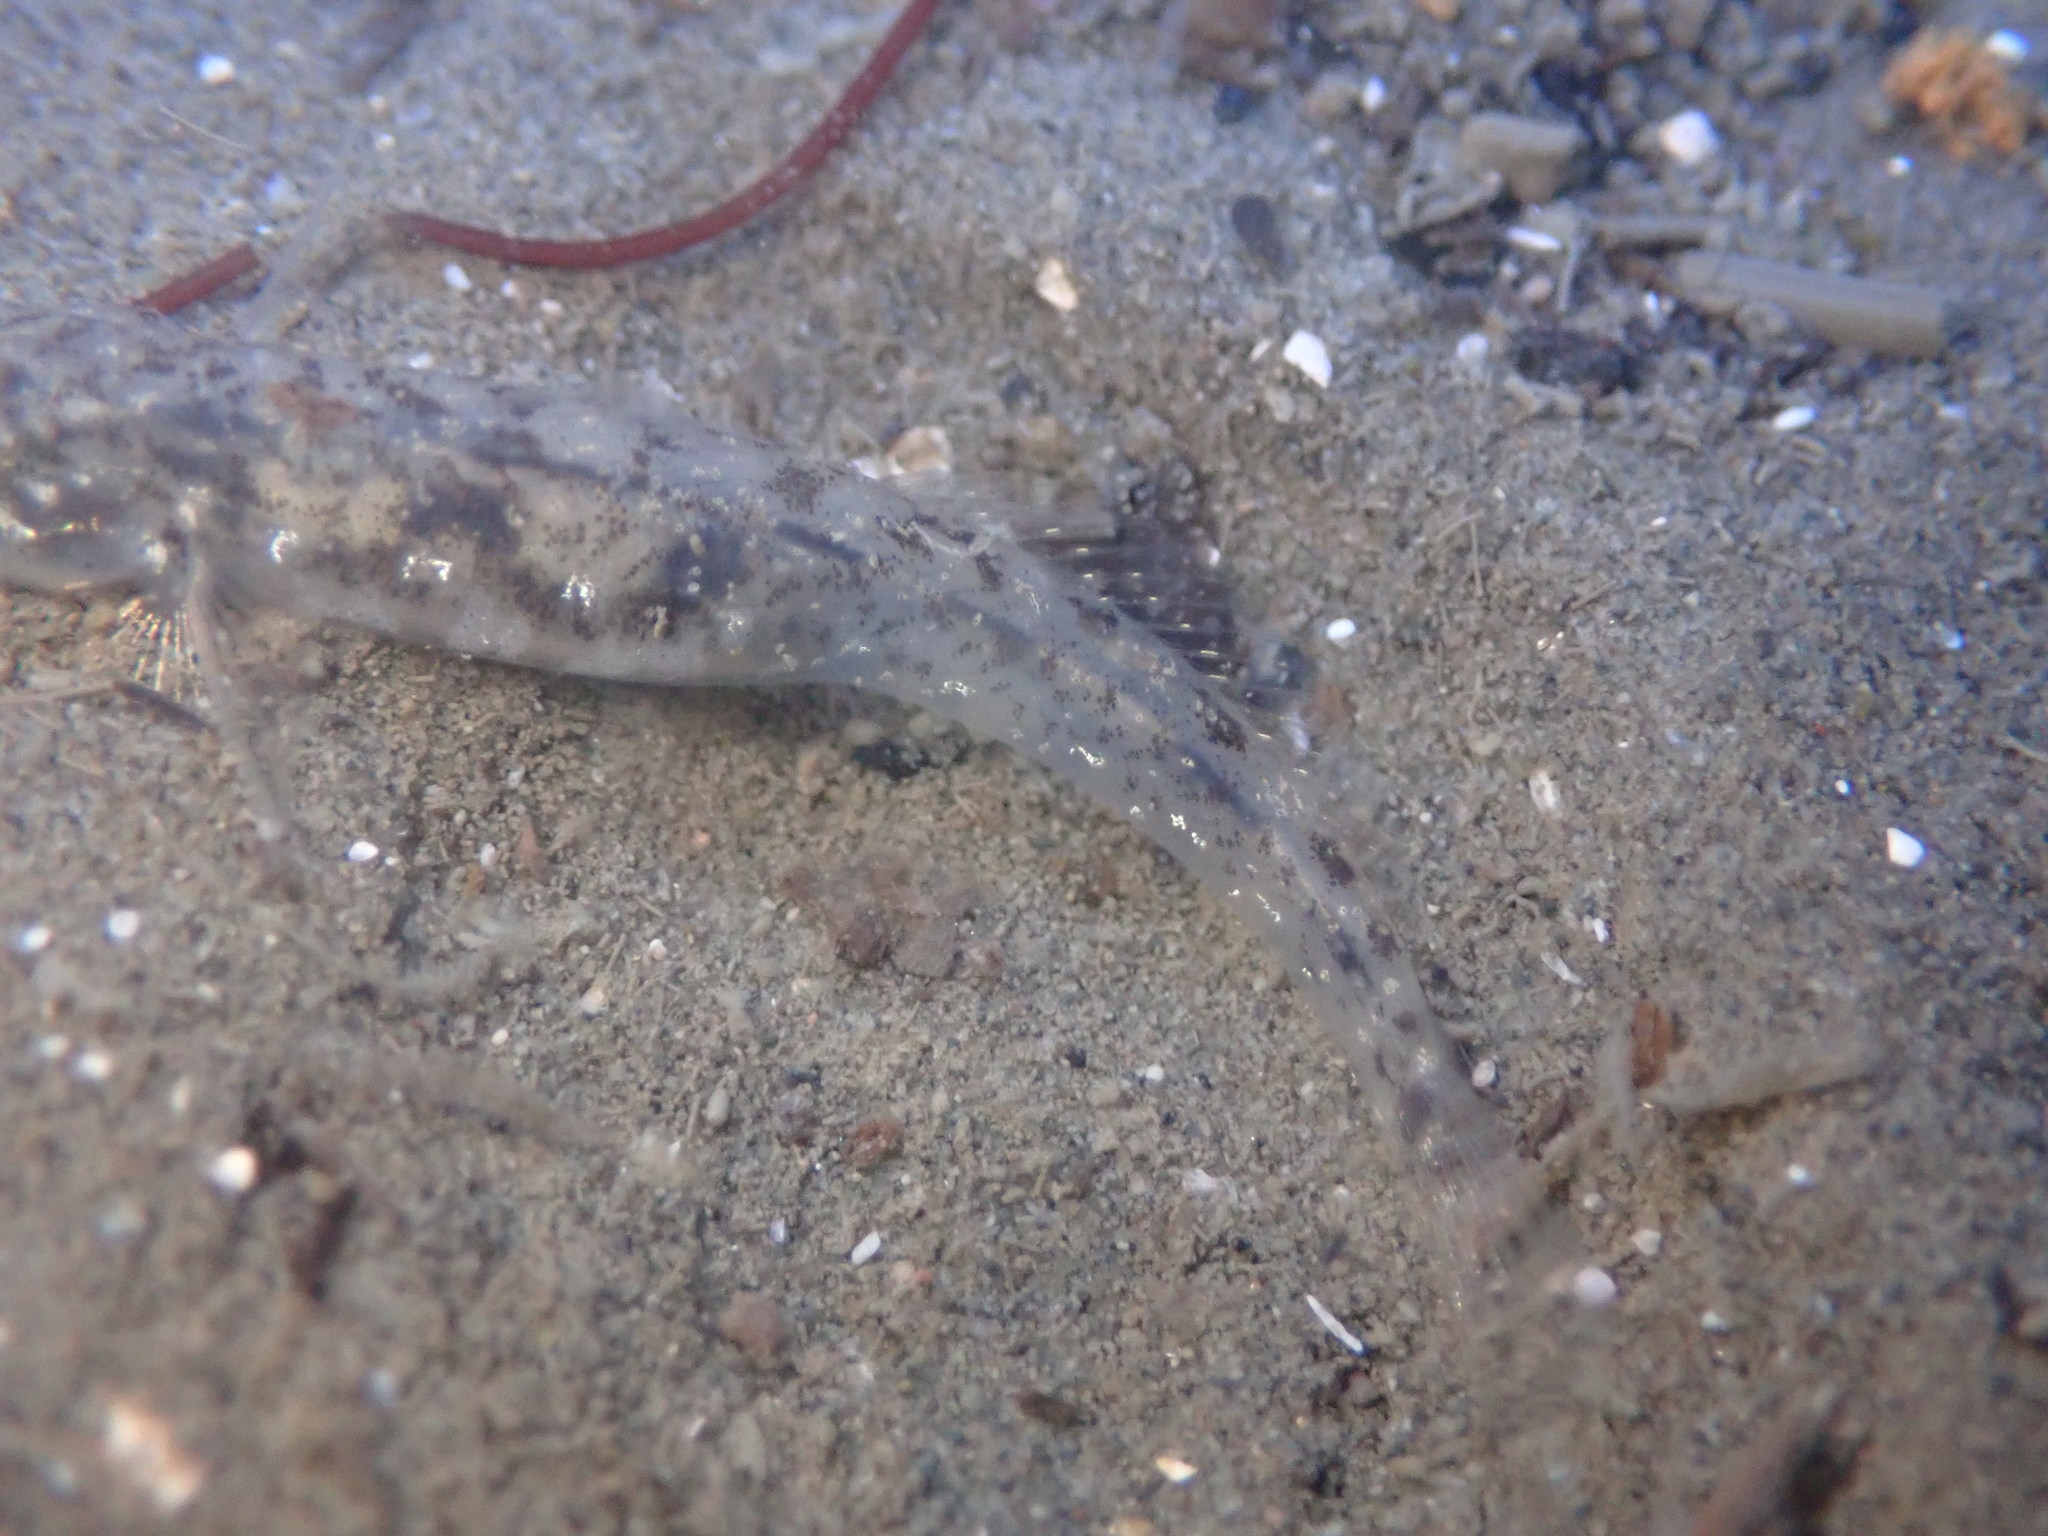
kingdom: Animalia
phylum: Chordata
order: Perciformes
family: Gobiidae
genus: Clevelandia
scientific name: Clevelandia ios
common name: Arrow goby
